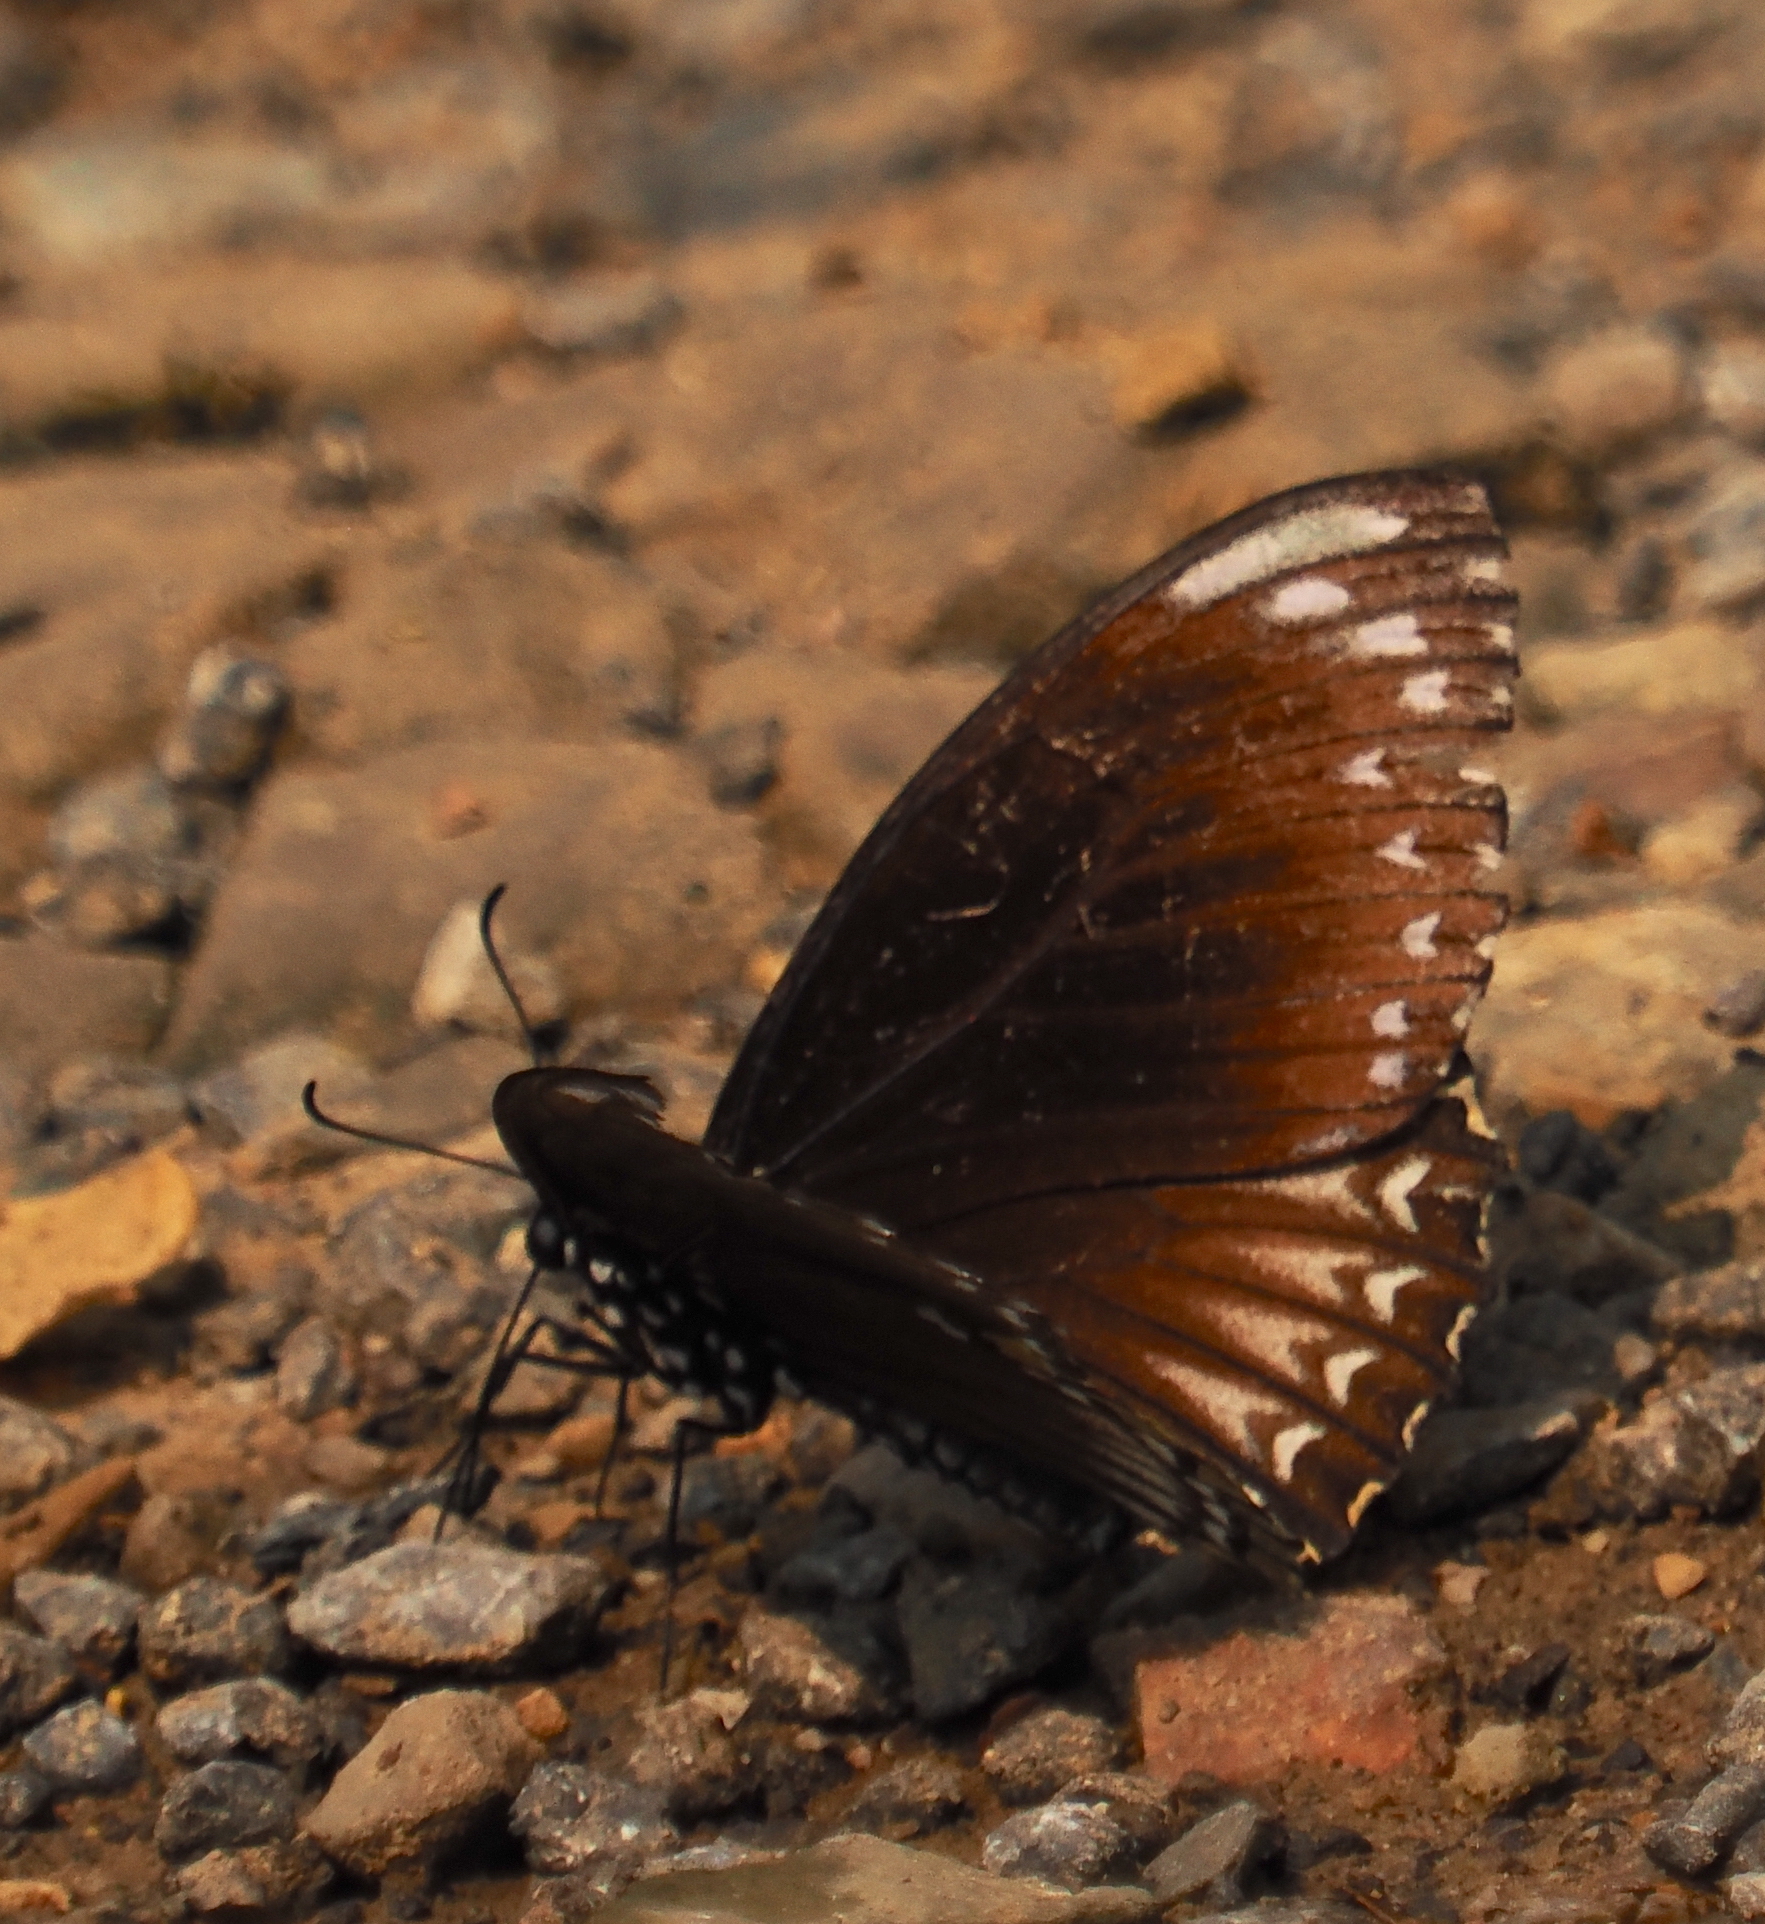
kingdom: Animalia
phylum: Arthropoda
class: Insecta
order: Lepidoptera
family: Papilionidae
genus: Chilasa
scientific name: Chilasa clytia
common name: Common mime
